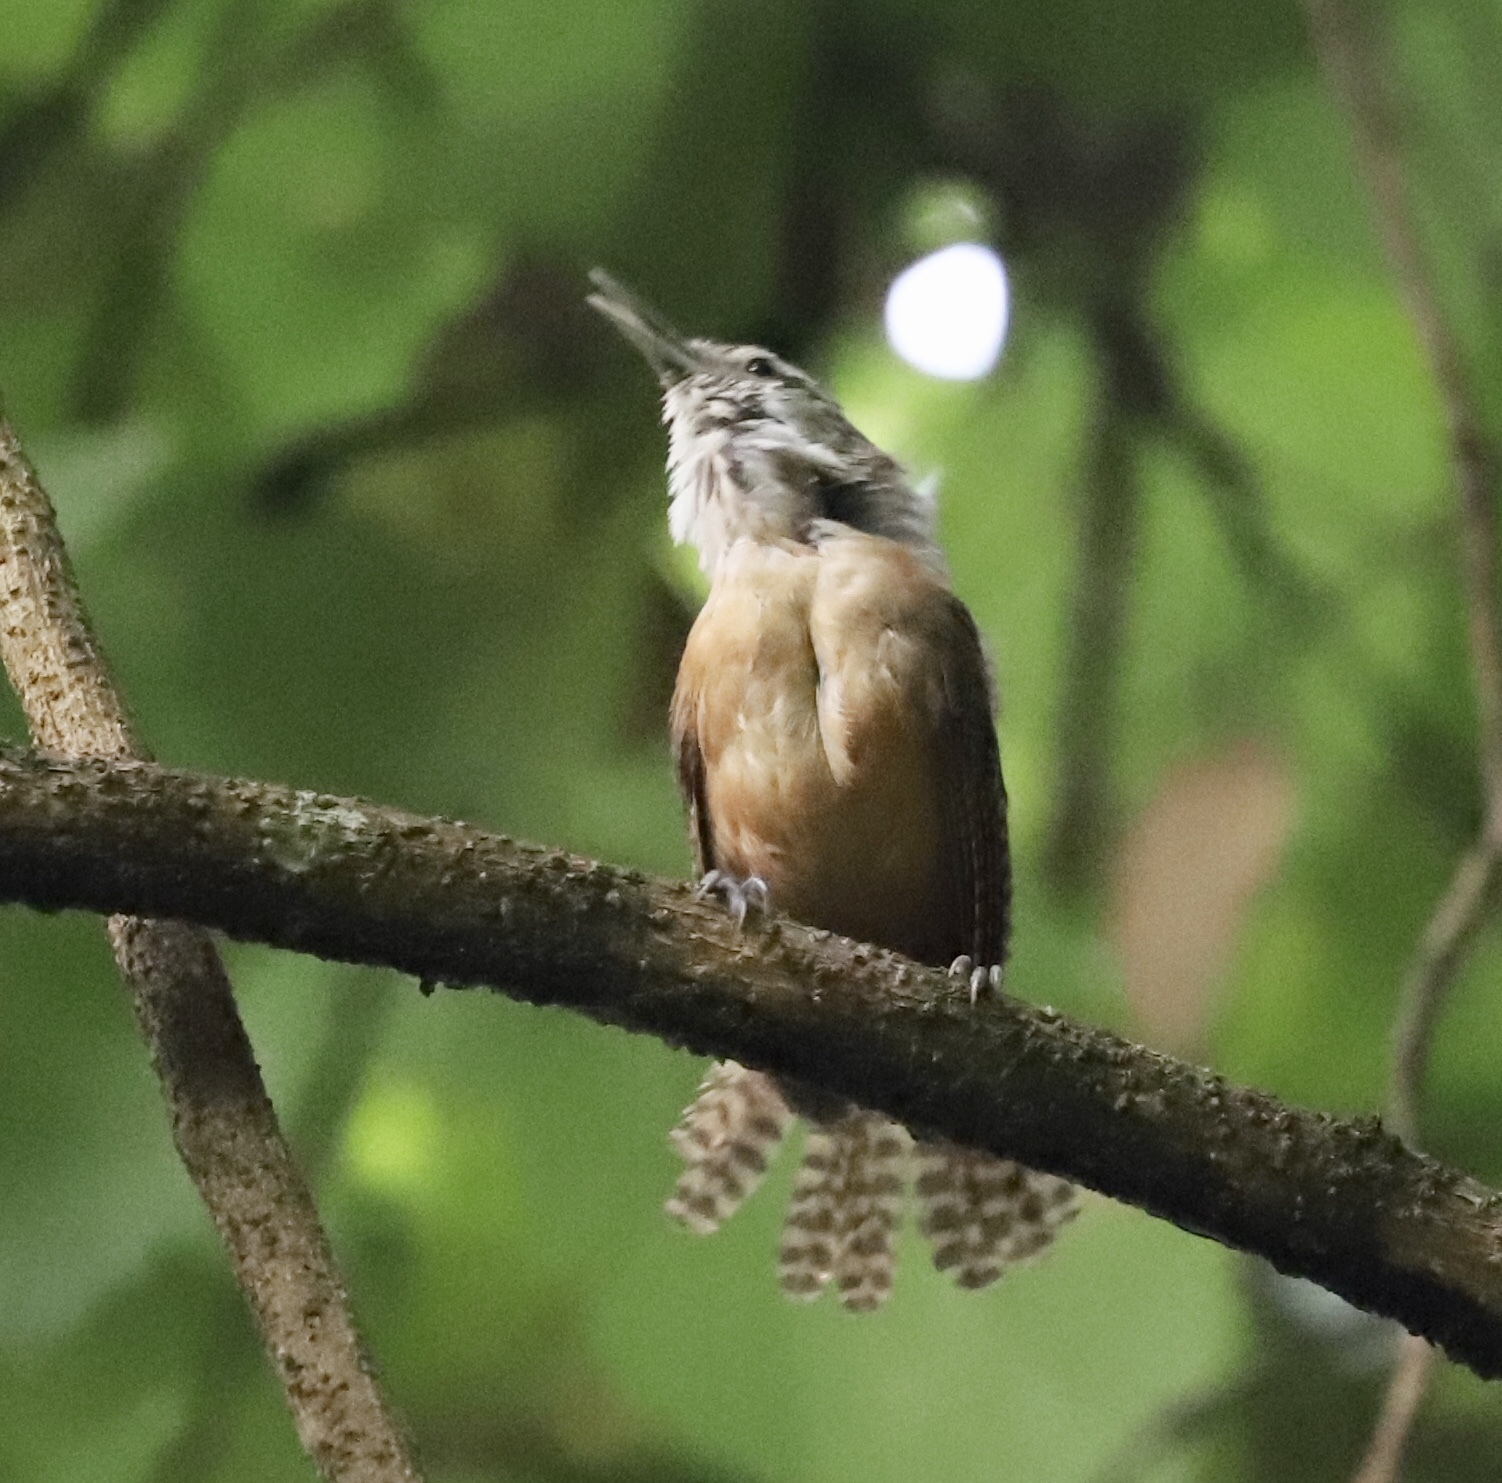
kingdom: Animalia
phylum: Chordata
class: Aves
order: Passeriformes
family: Troglodytidae
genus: Cantorchilus
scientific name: Cantorchilus leucotis
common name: Buff-breasted wren
